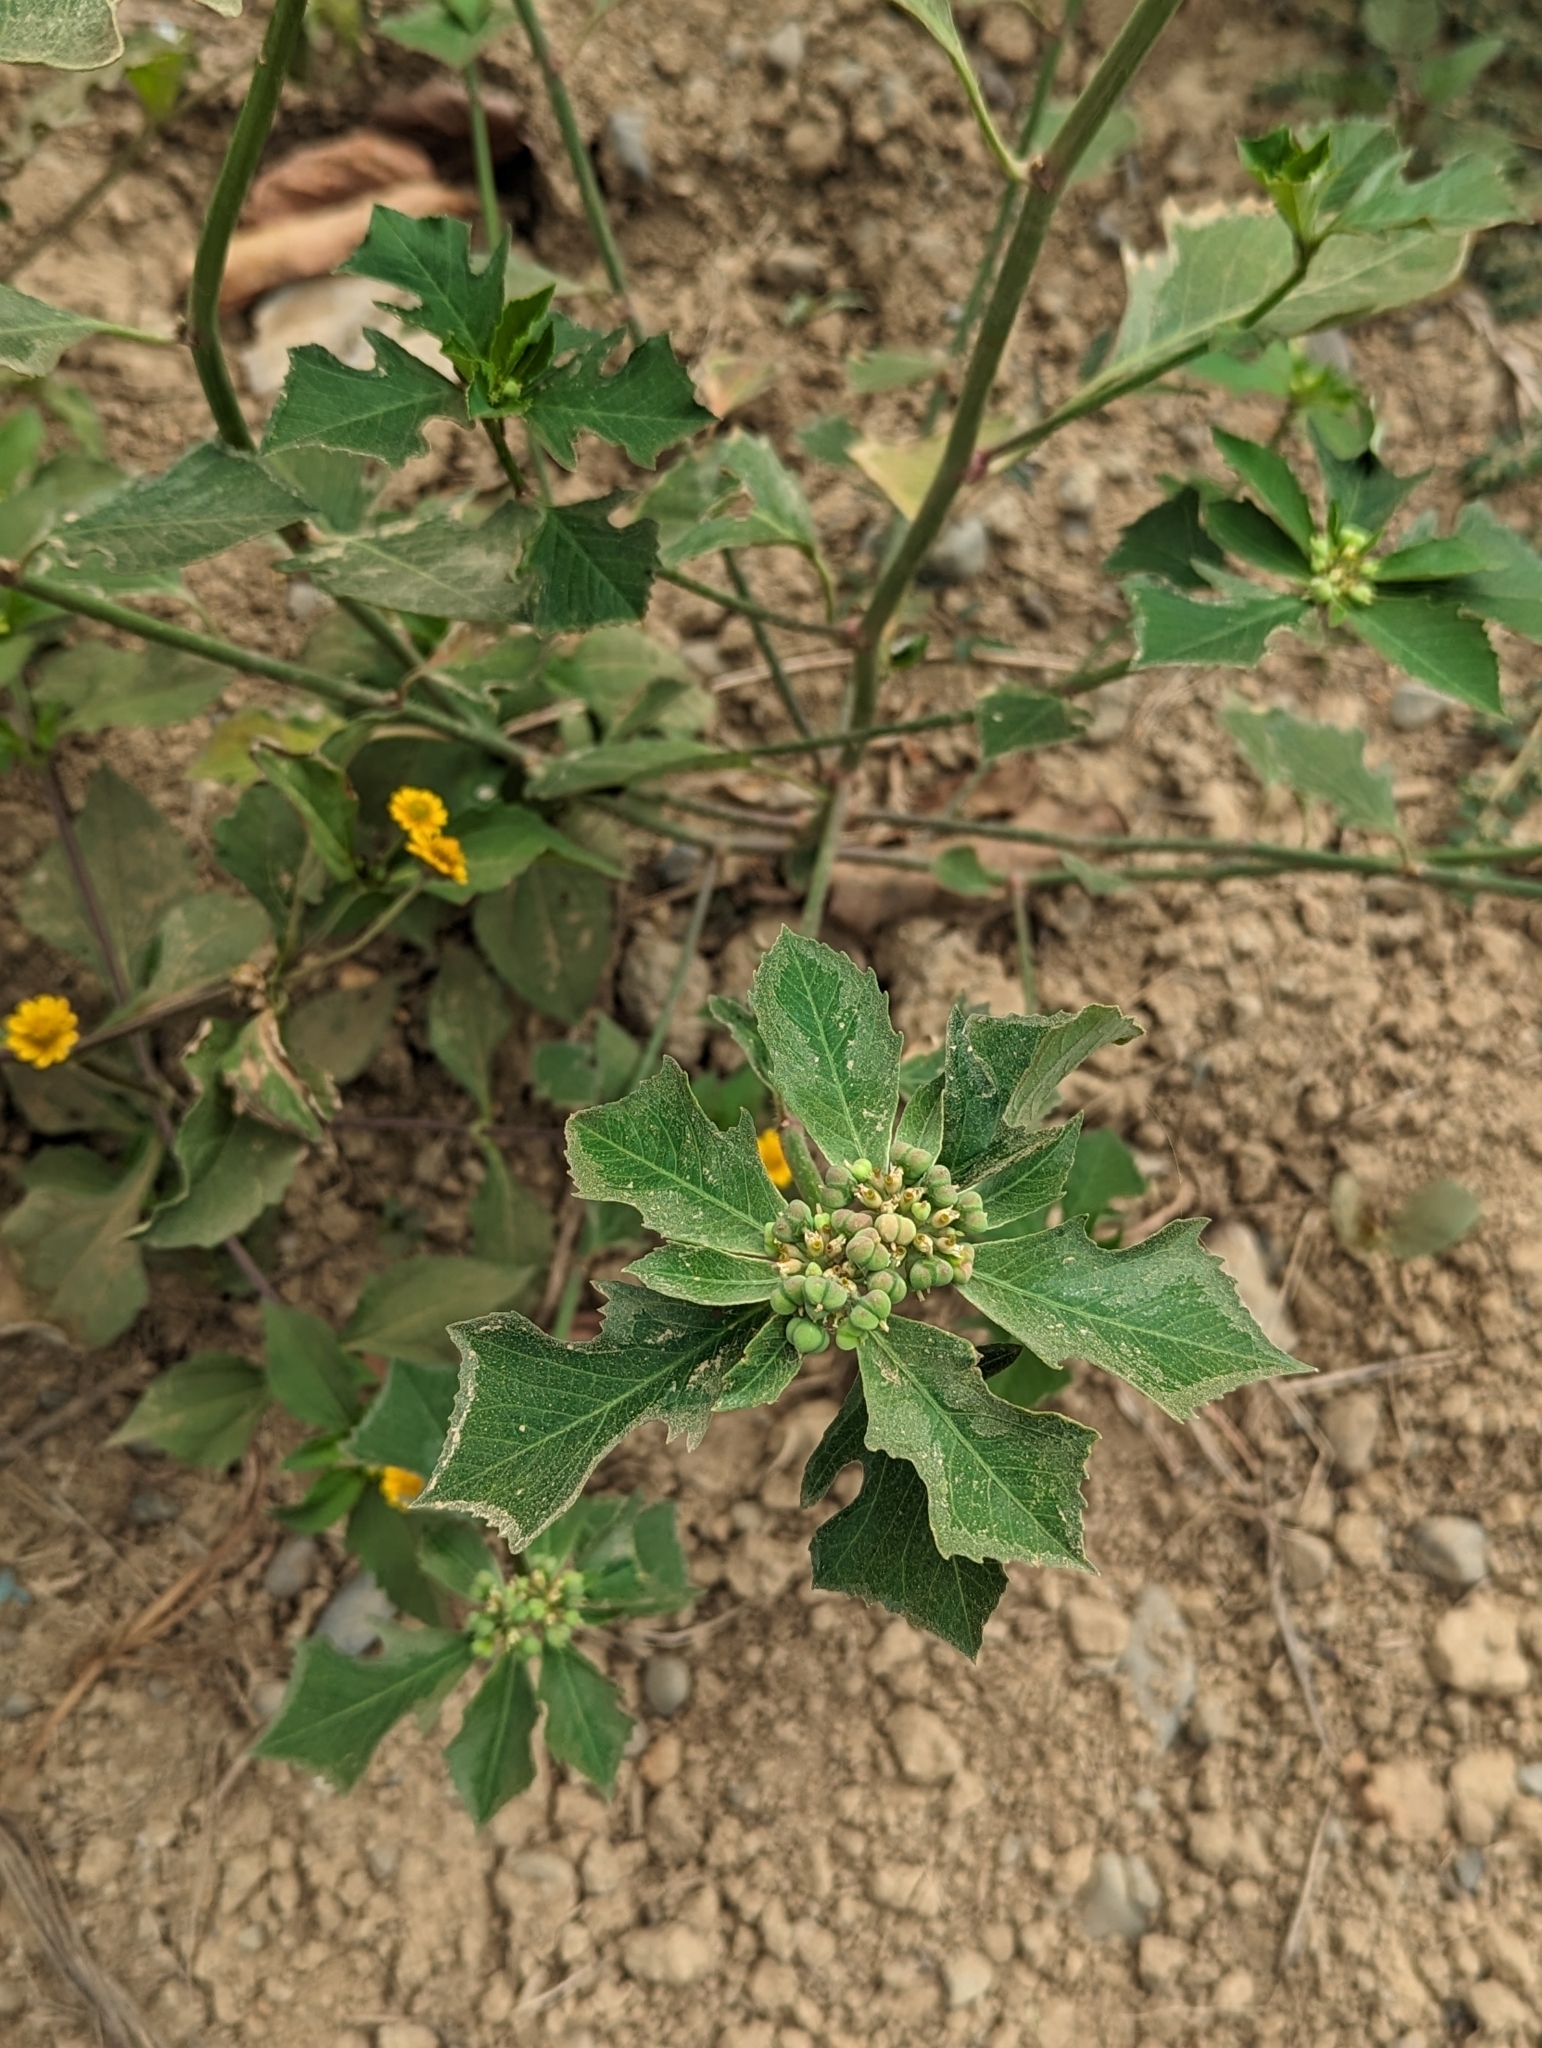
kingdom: Plantae
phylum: Tracheophyta
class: Magnoliopsida
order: Malpighiales
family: Euphorbiaceae
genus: Euphorbia
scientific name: Euphorbia heterophylla
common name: Mexican fireplant
